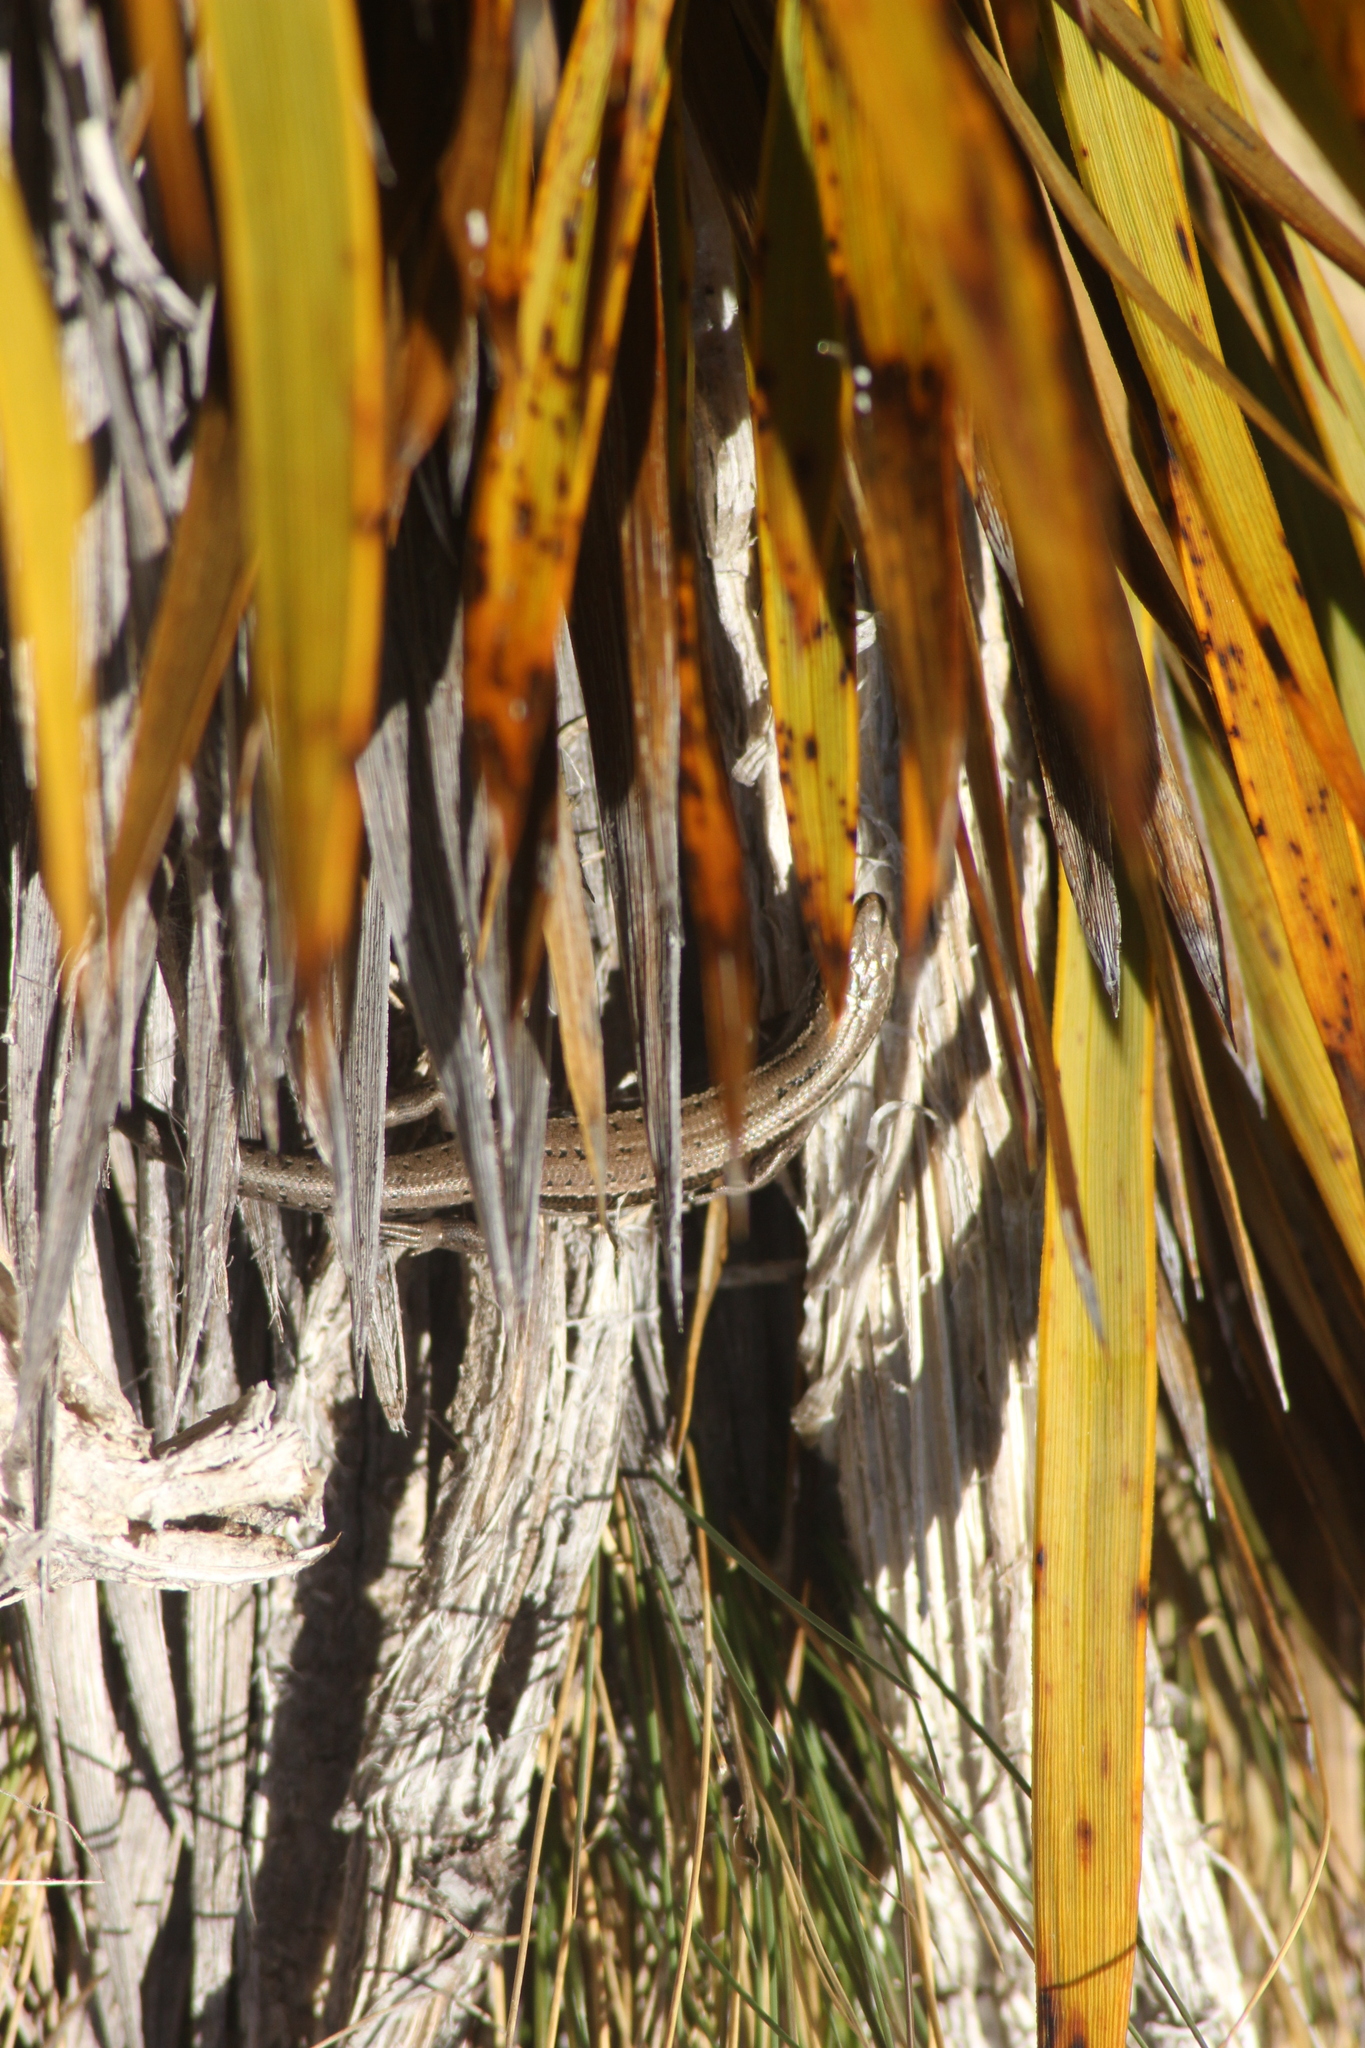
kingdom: Animalia
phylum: Chordata
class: Squamata
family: Scincidae
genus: Oligosoma
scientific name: Oligosoma maccanni
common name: Mccann’s skink
